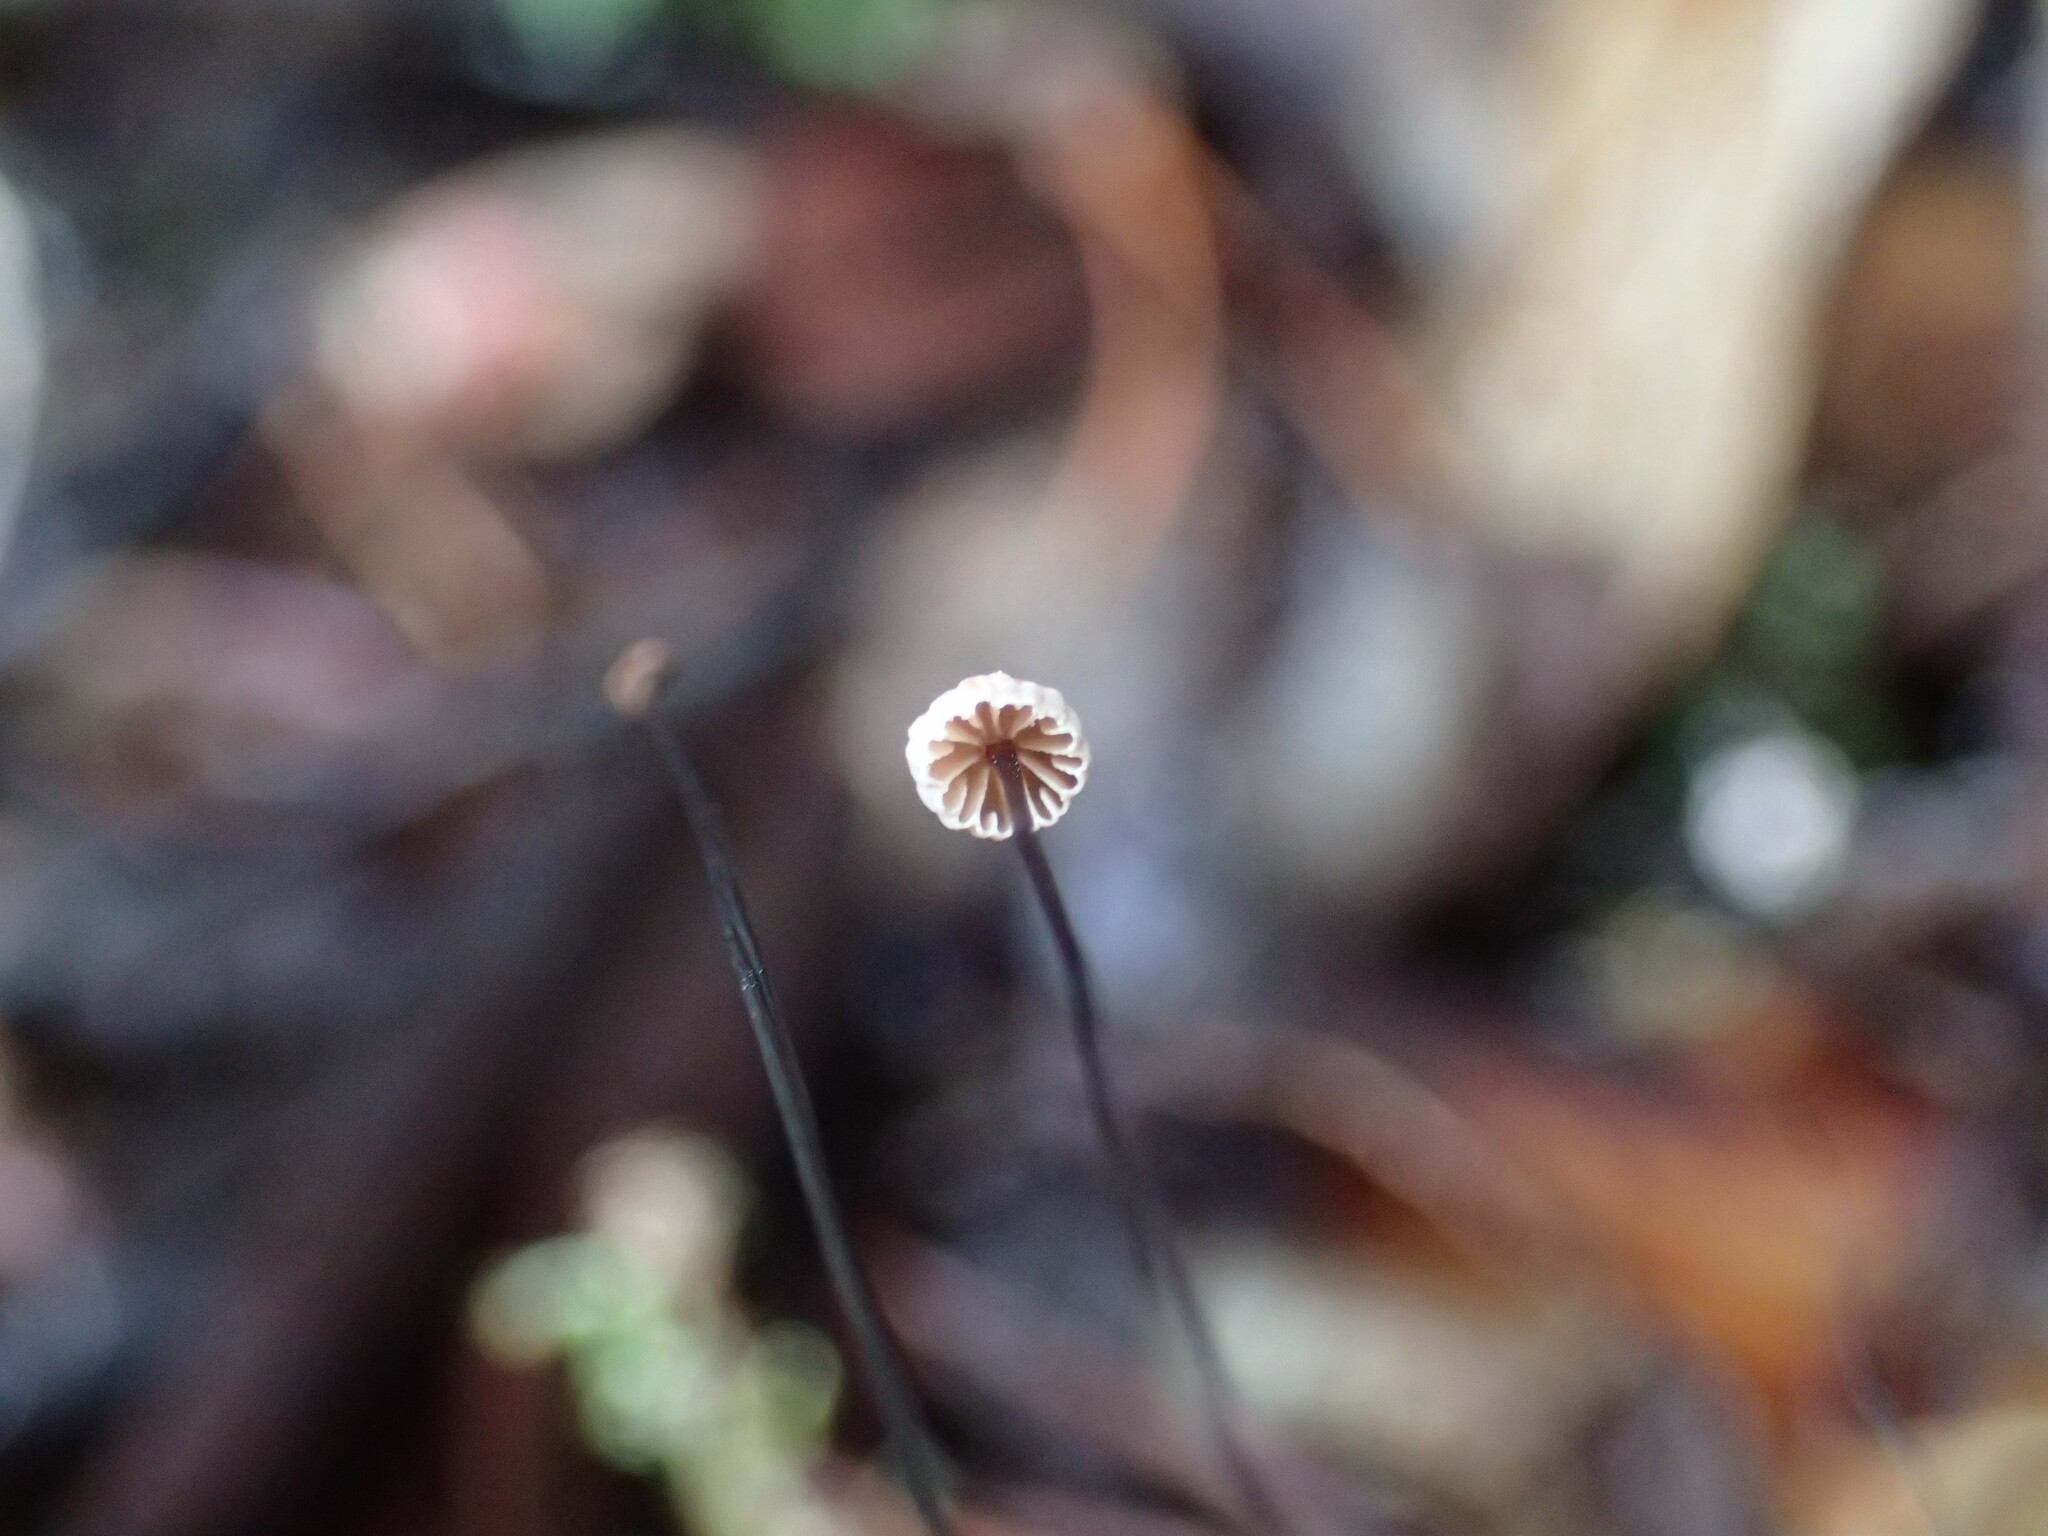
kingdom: Fungi
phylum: Basidiomycota
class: Agaricomycetes
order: Agaricales
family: Omphalotaceae
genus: Gymnopus
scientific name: Gymnopus androsaceus
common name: Horse-hair fungus
